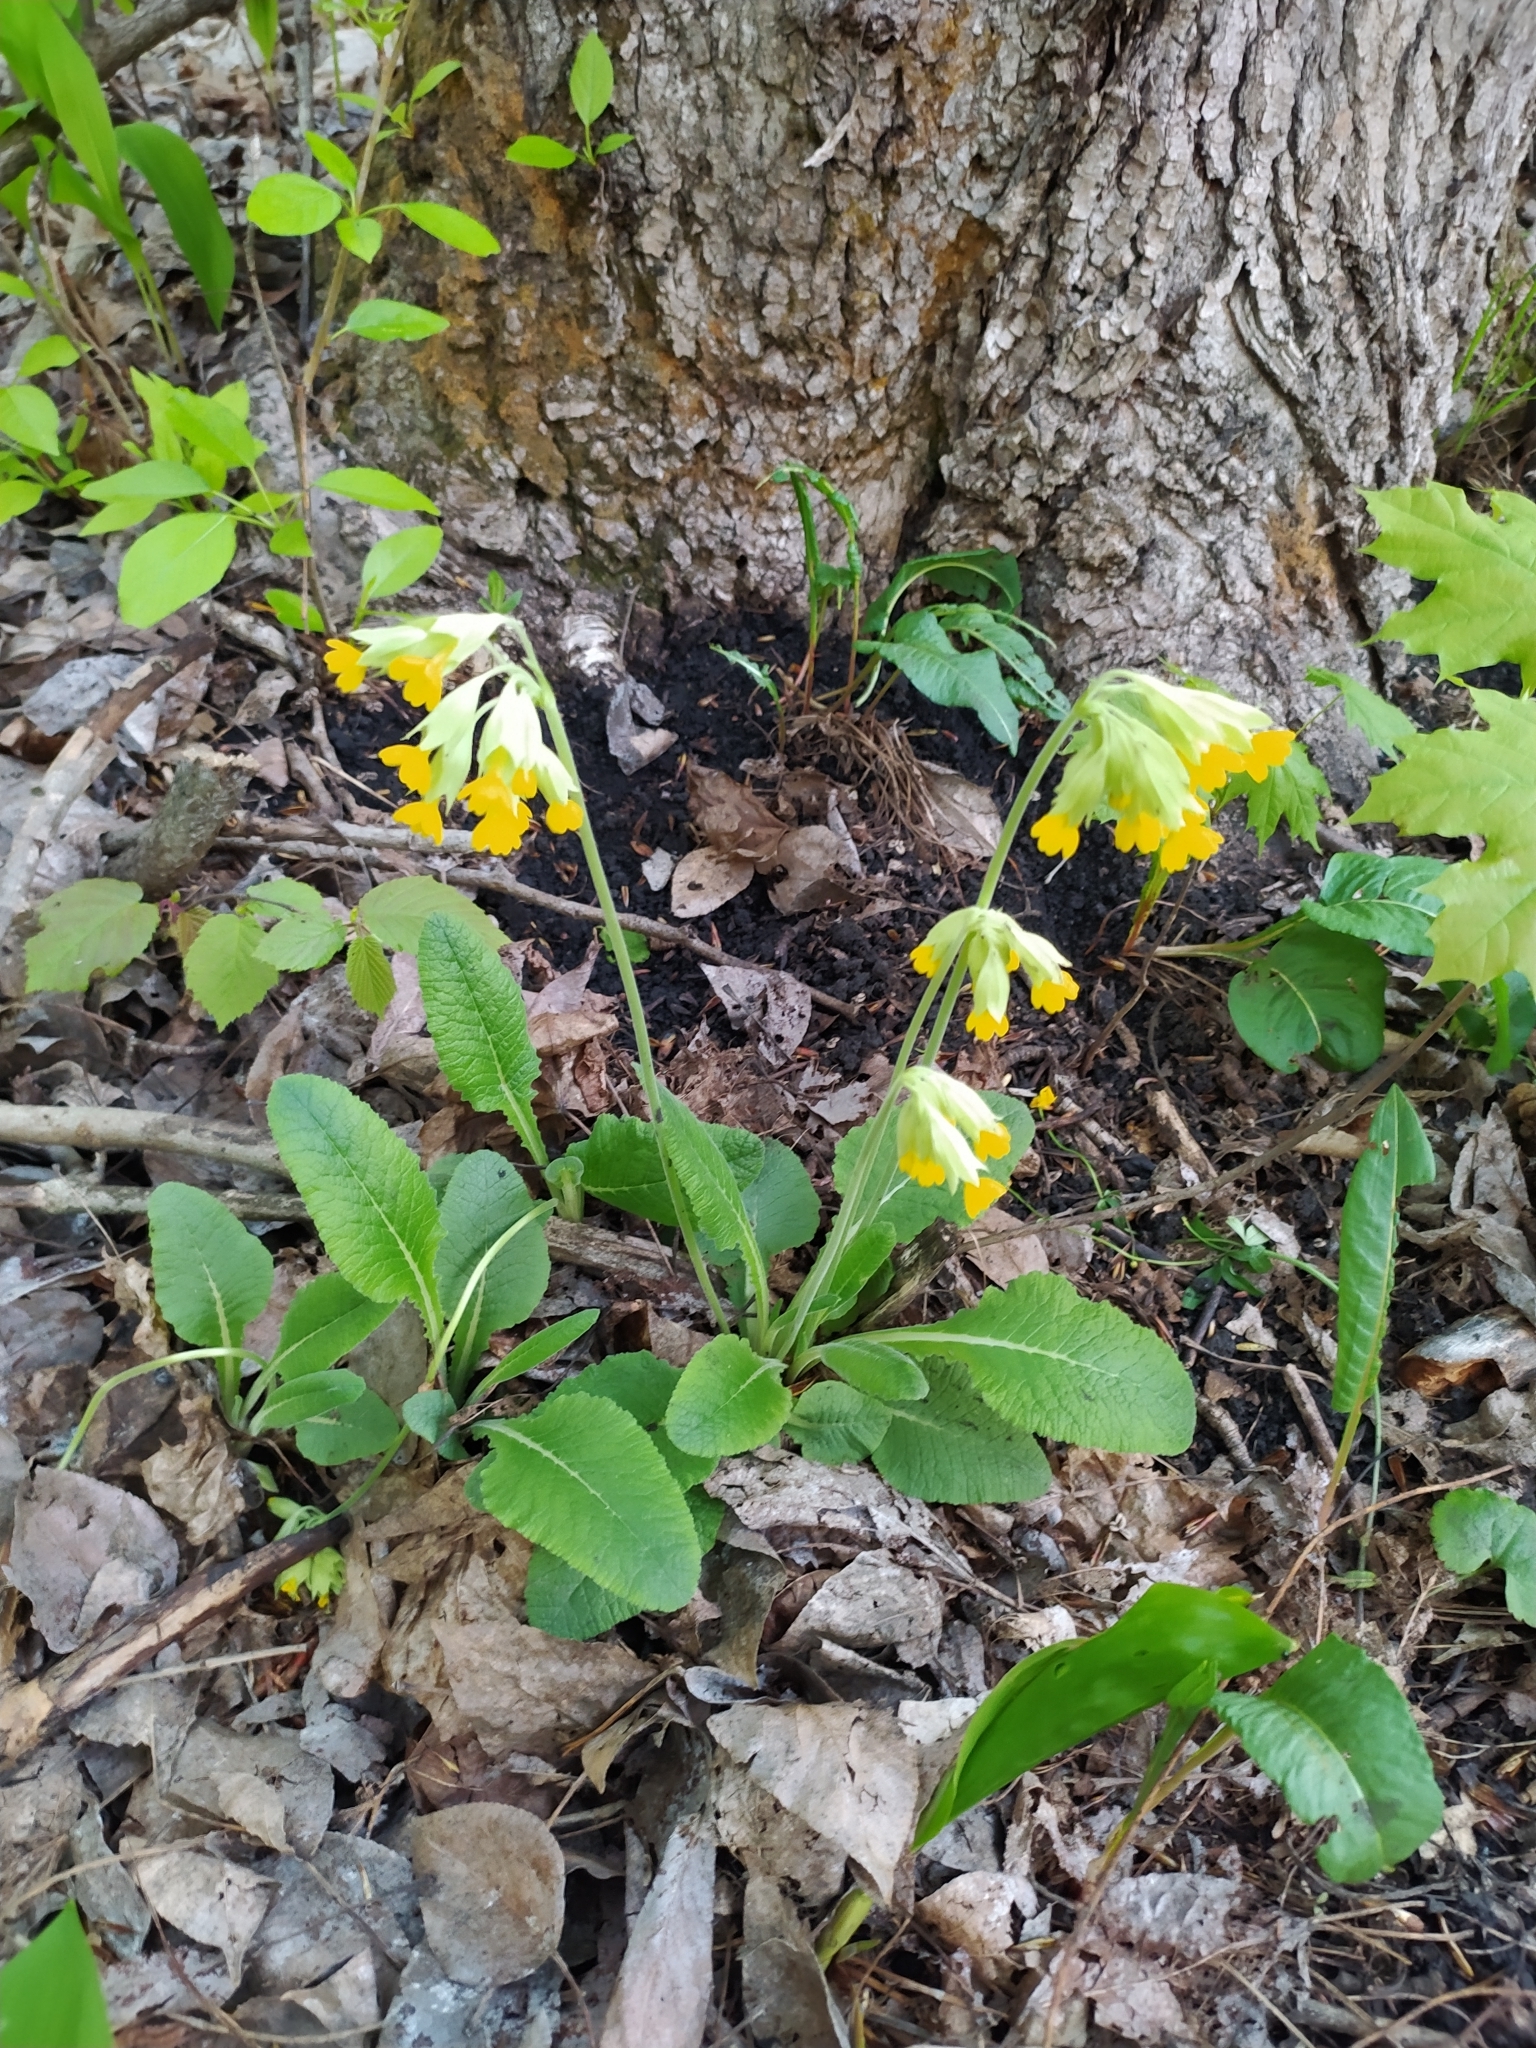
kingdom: Plantae
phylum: Tracheophyta
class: Magnoliopsida
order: Ericales
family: Primulaceae
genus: Primula
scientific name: Primula veris
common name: Cowslip
